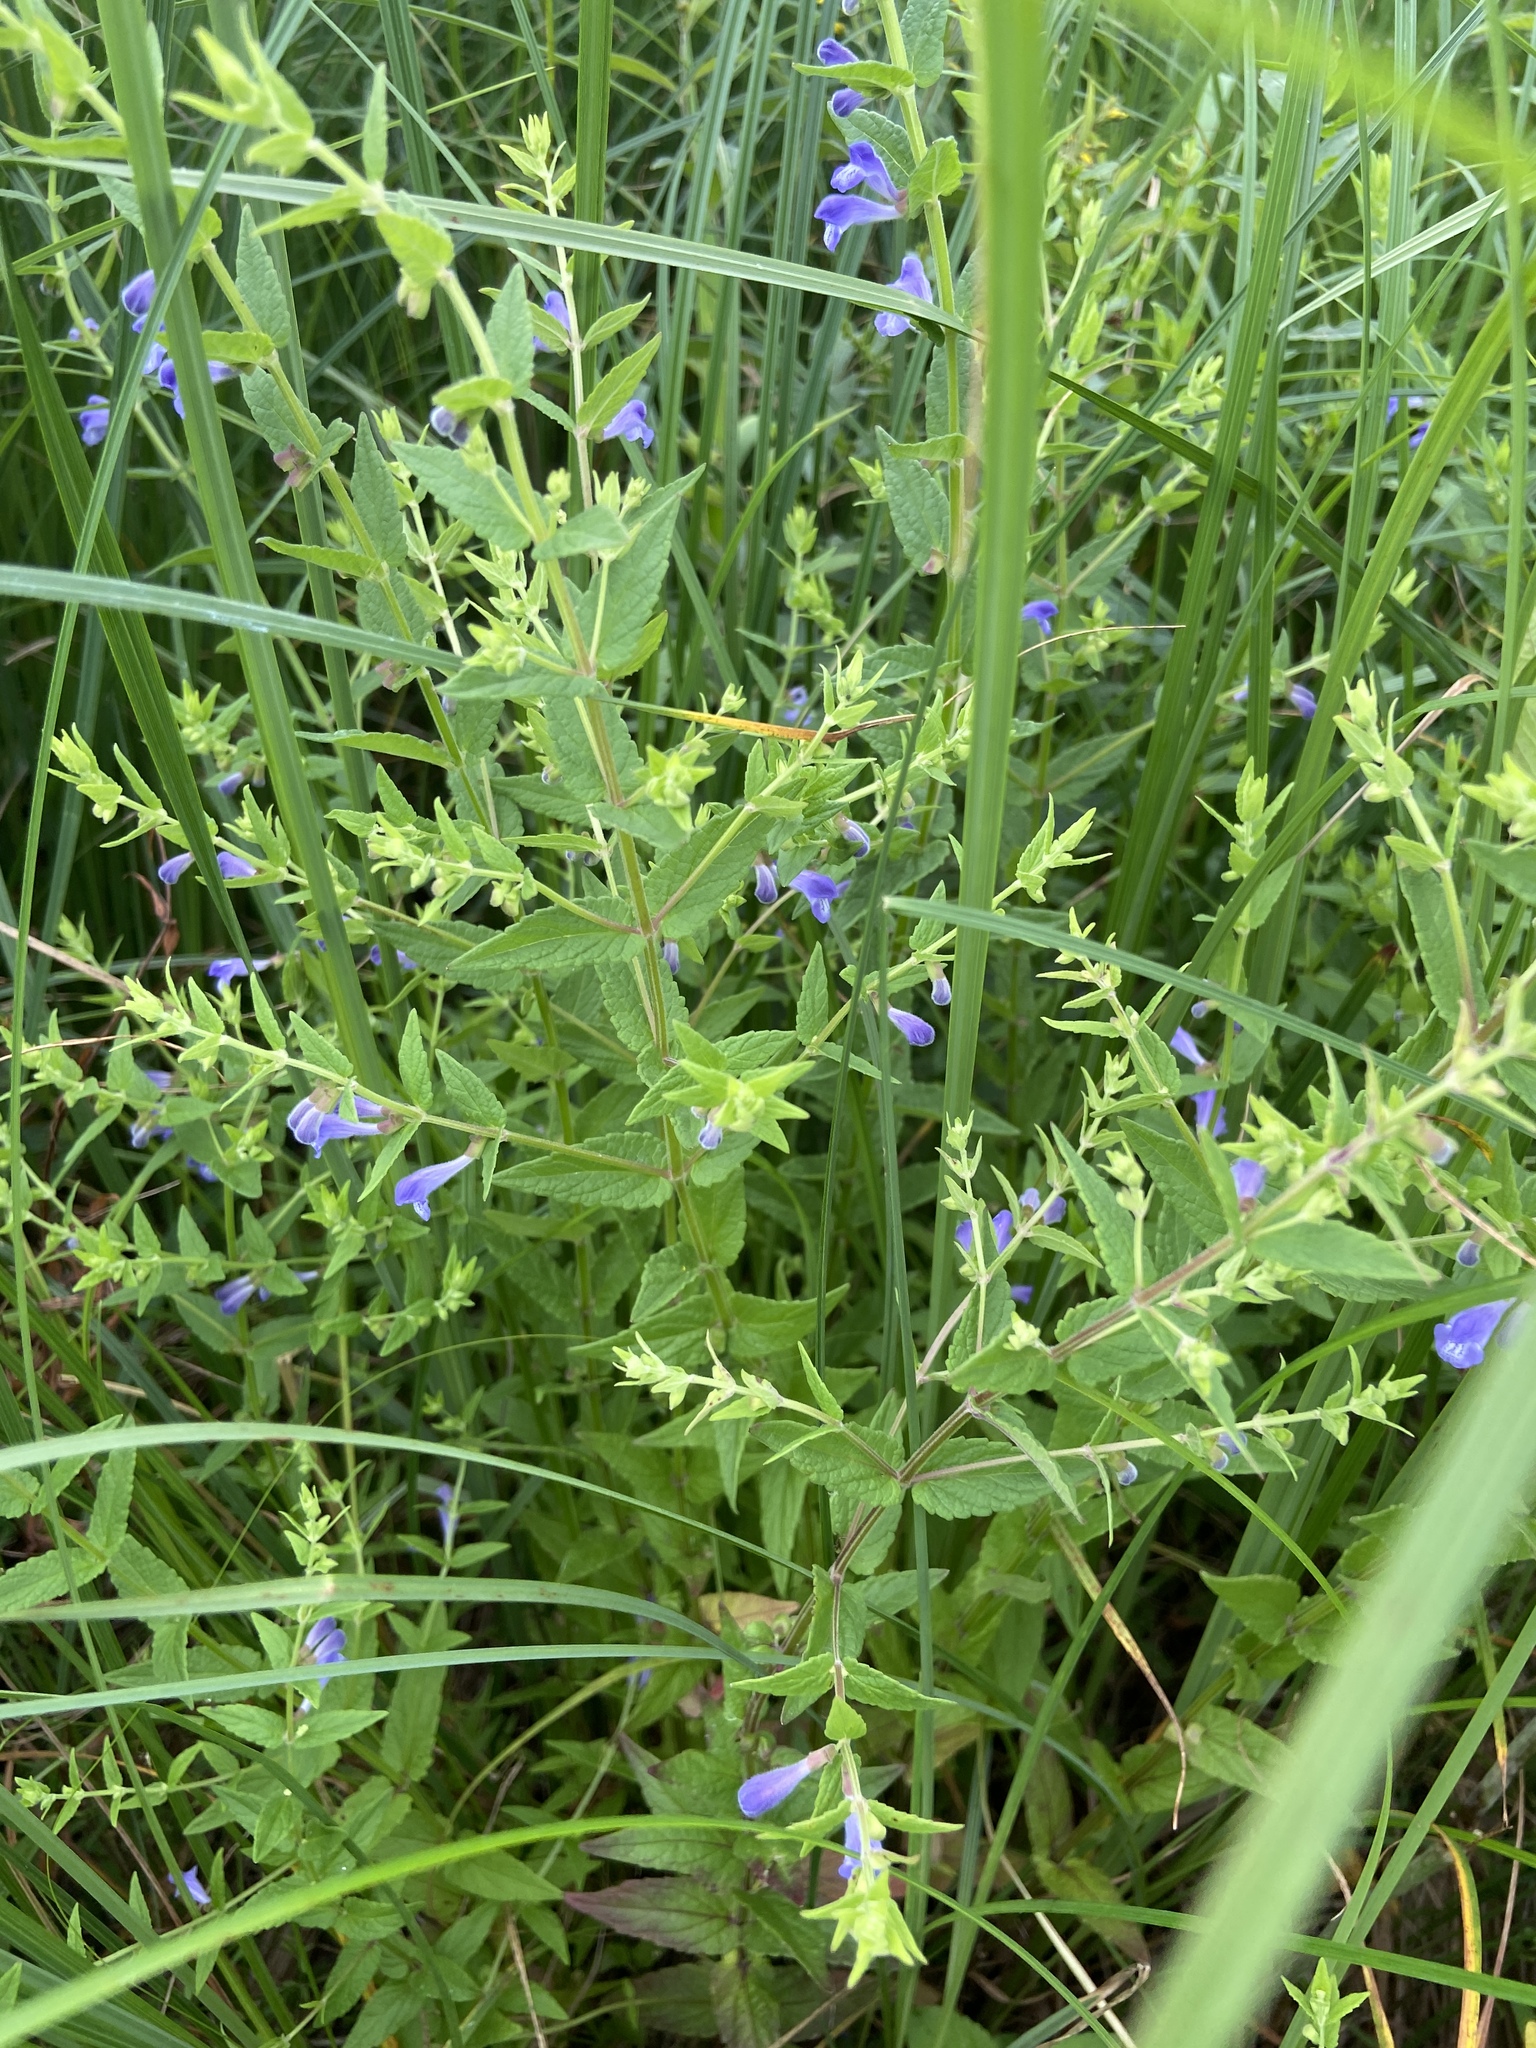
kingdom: Plantae
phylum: Tracheophyta
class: Magnoliopsida
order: Lamiales
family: Lamiaceae
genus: Scutellaria
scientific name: Scutellaria galericulata
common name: Skullcap
